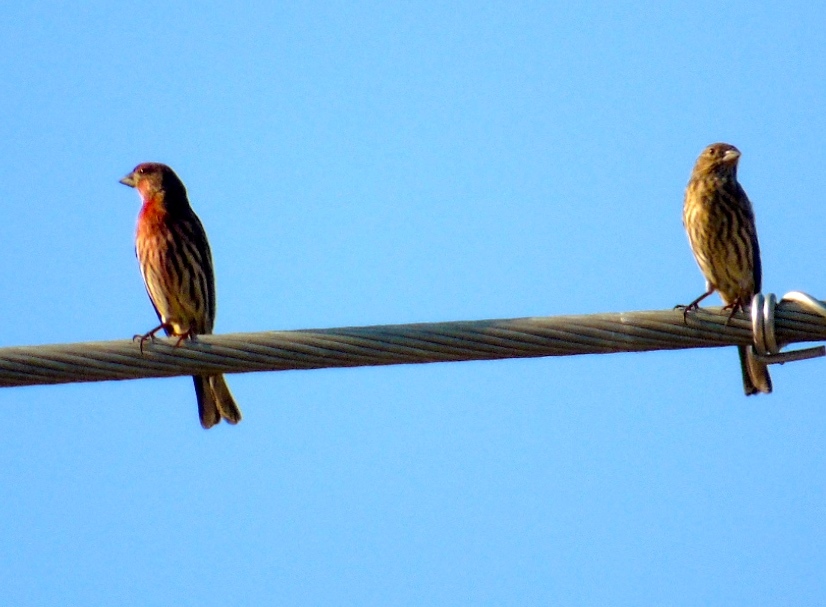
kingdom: Animalia
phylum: Chordata
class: Aves
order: Passeriformes
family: Fringillidae
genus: Haemorhous
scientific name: Haemorhous mexicanus
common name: House finch
